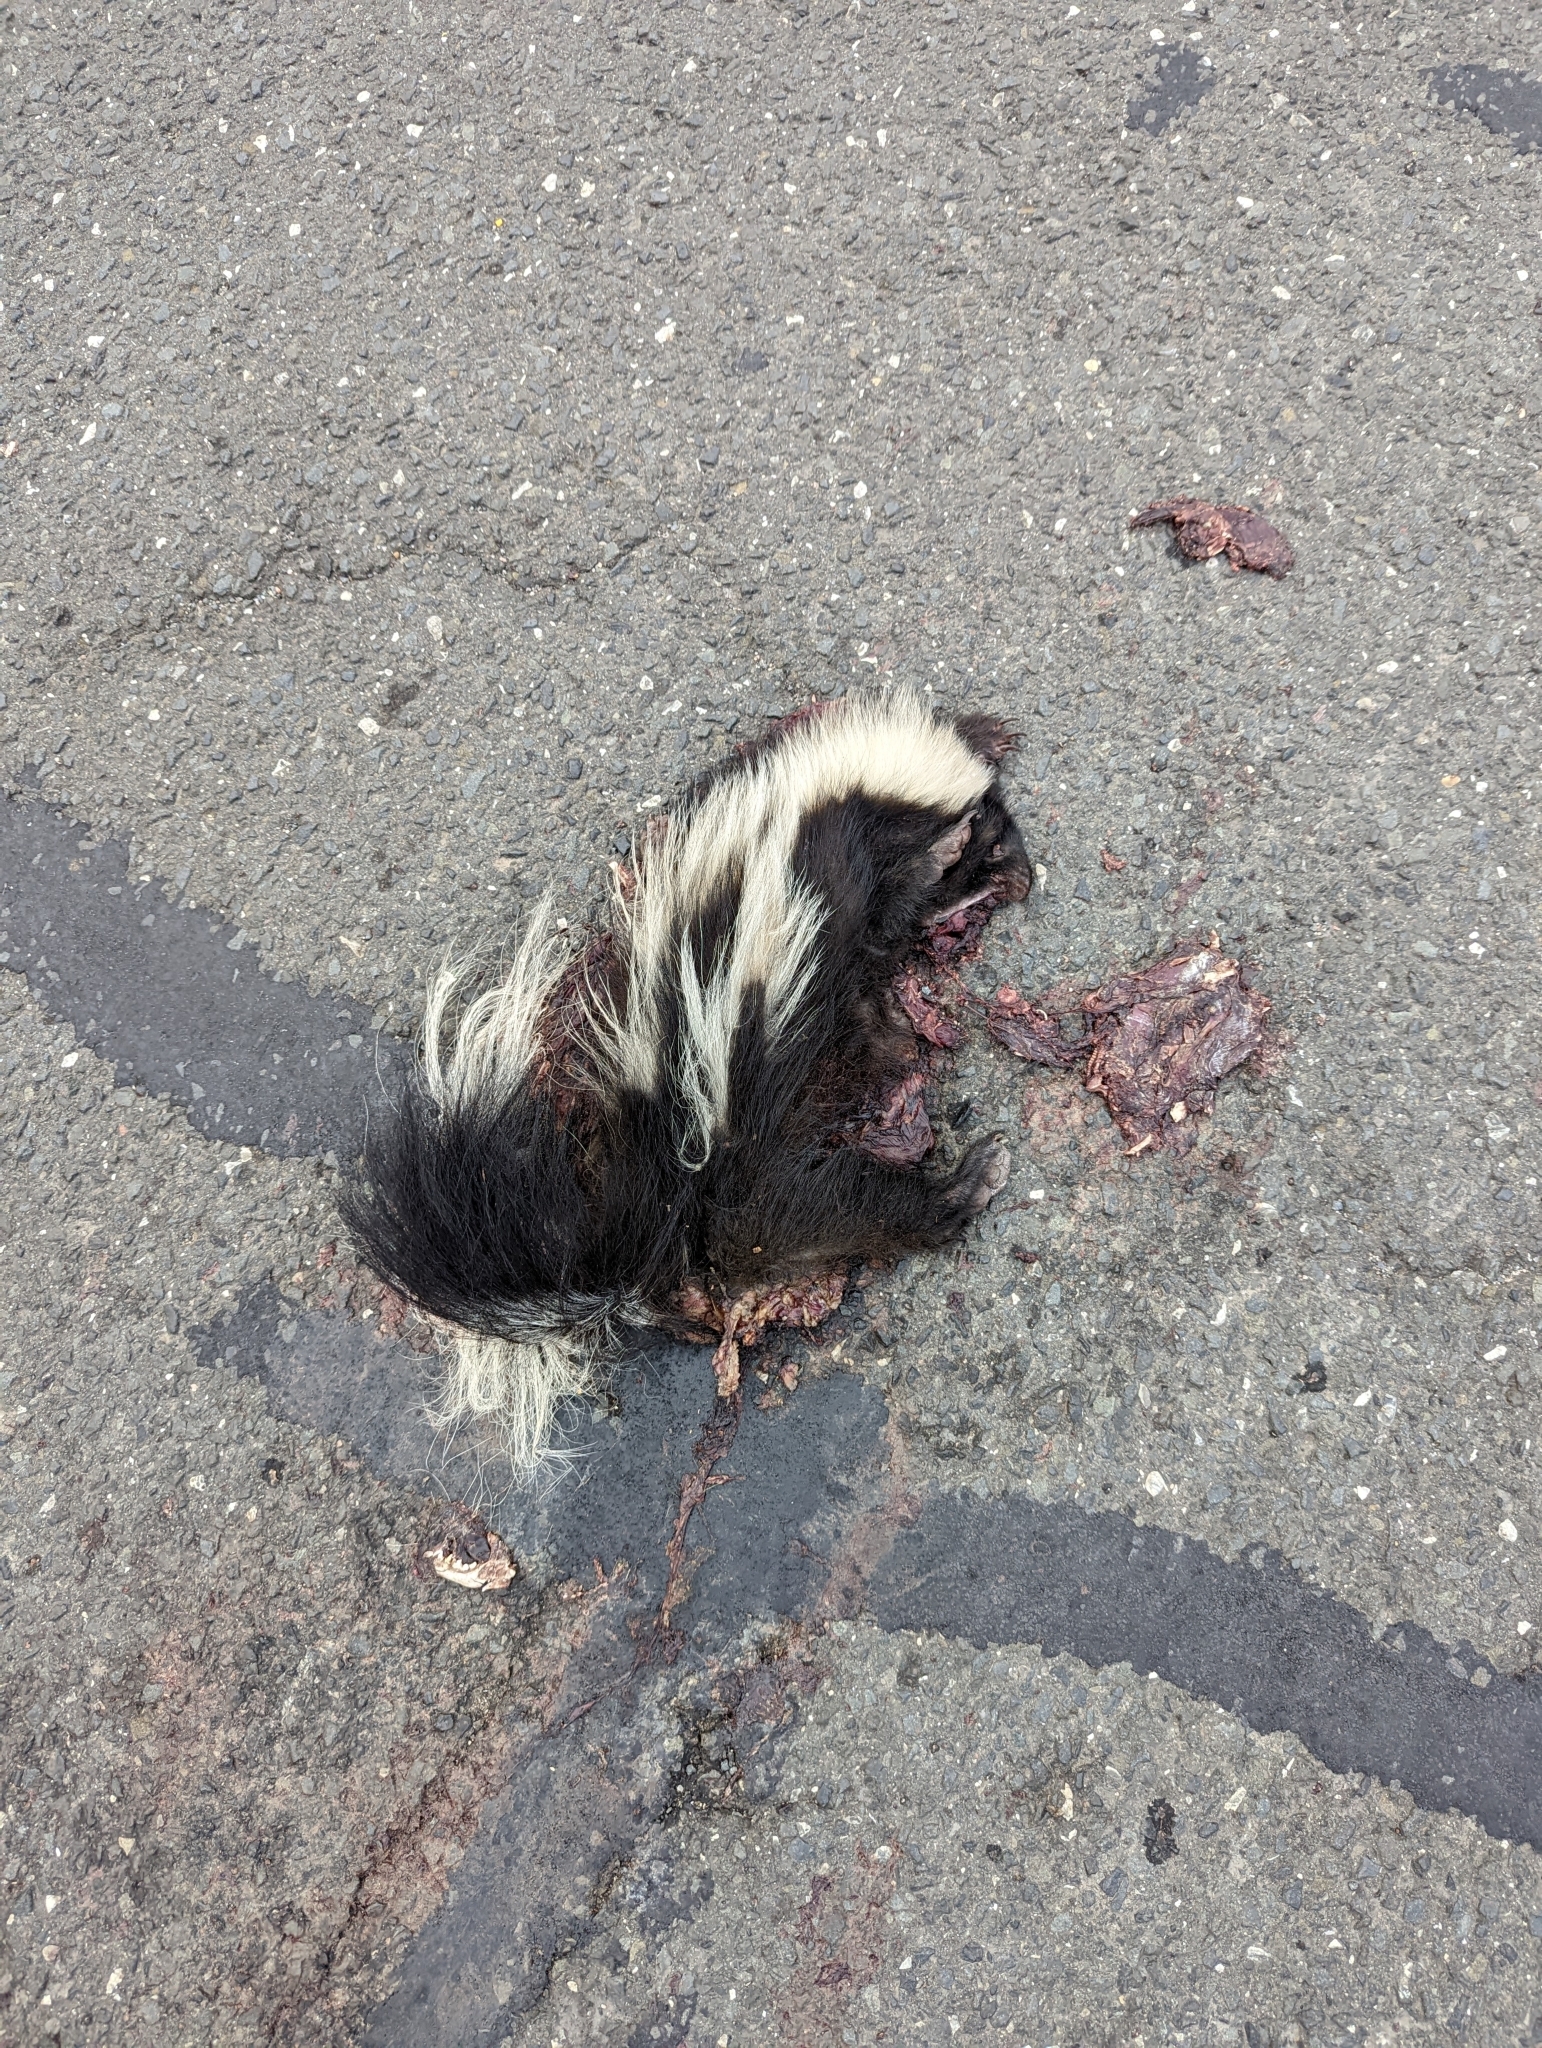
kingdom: Animalia
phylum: Chordata
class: Mammalia
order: Carnivora
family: Mephitidae
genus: Mephitis
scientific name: Mephitis mephitis
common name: Striped skunk
